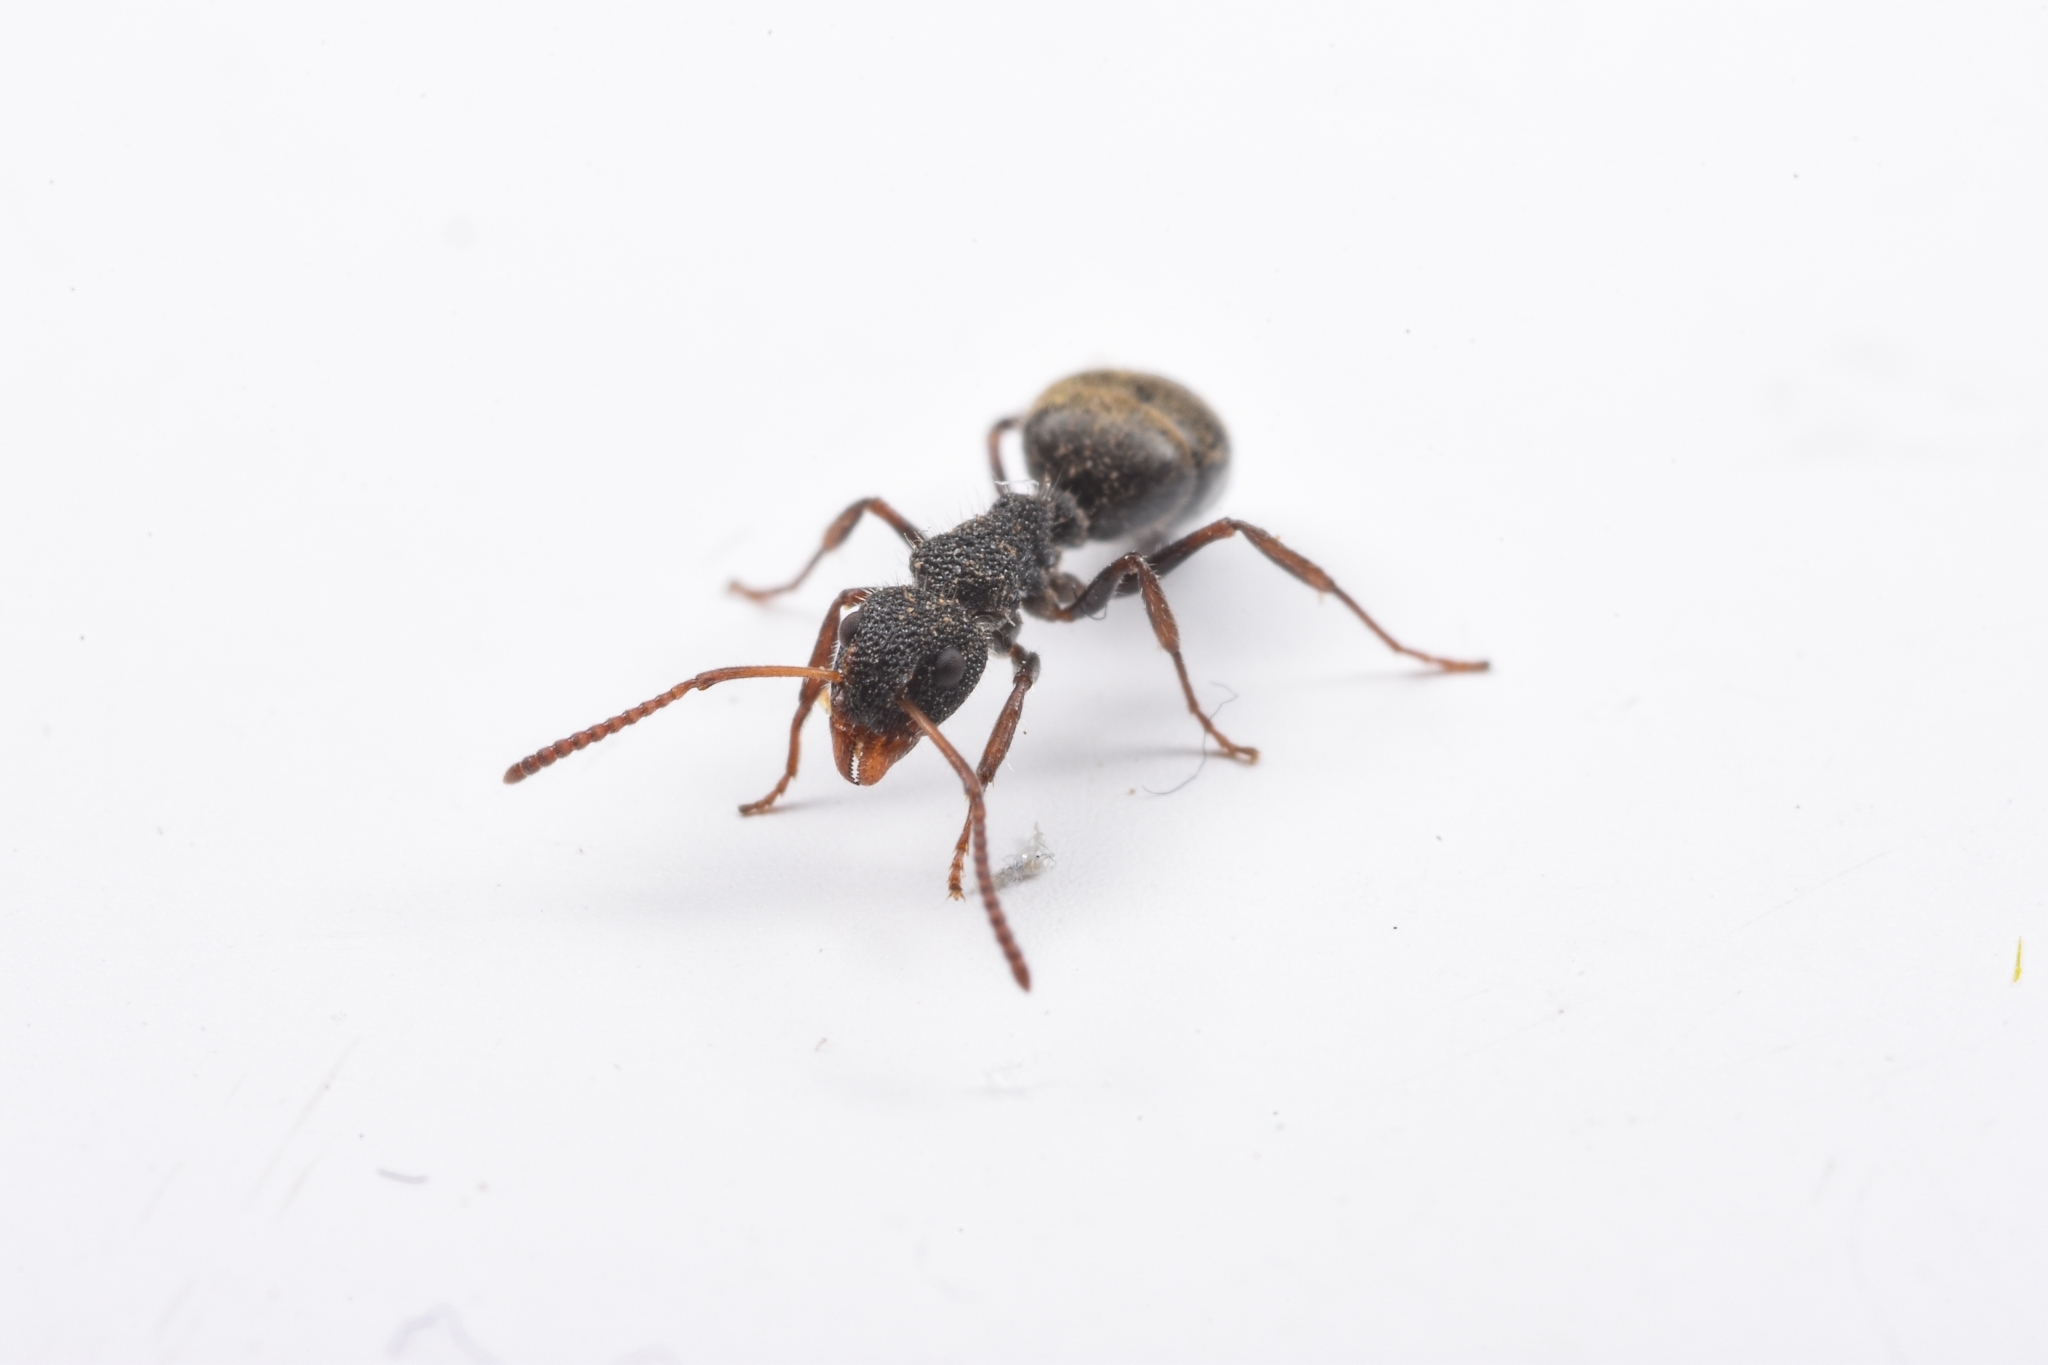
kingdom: Animalia
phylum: Arthropoda
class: Insecta
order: Hymenoptera
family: Formicidae
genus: Dolichoderus
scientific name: Dolichoderus scrobiculatus
